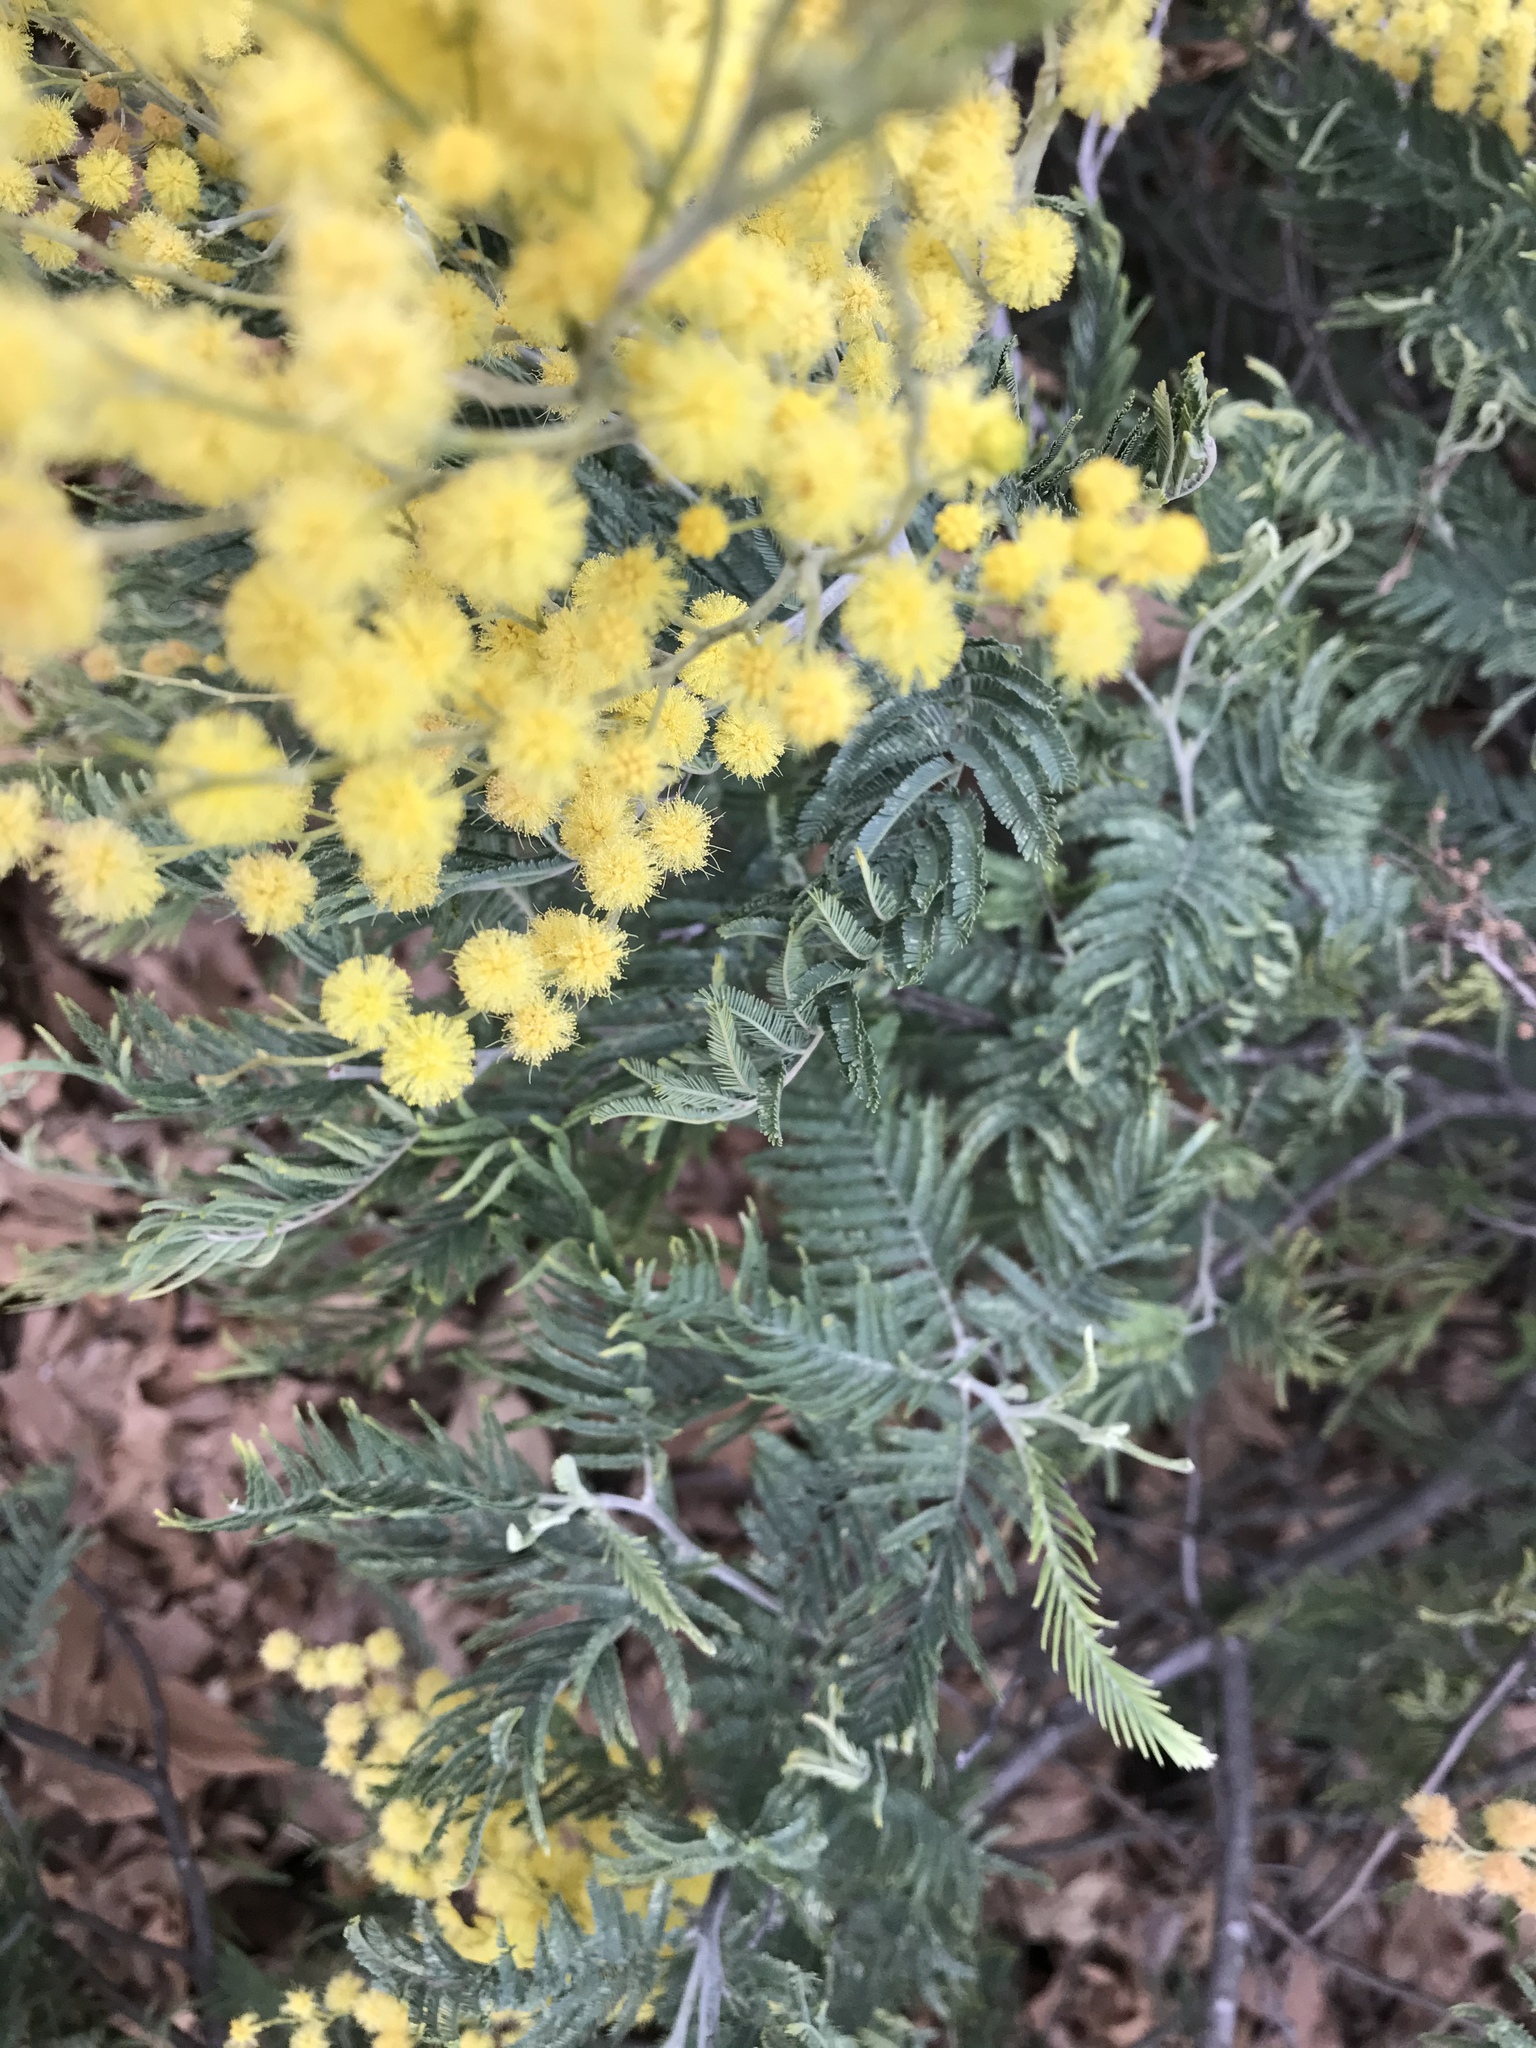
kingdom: Plantae
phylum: Tracheophyta
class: Magnoliopsida
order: Fabales
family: Fabaceae
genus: Acacia
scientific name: Acacia dealbata
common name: Silver wattle
